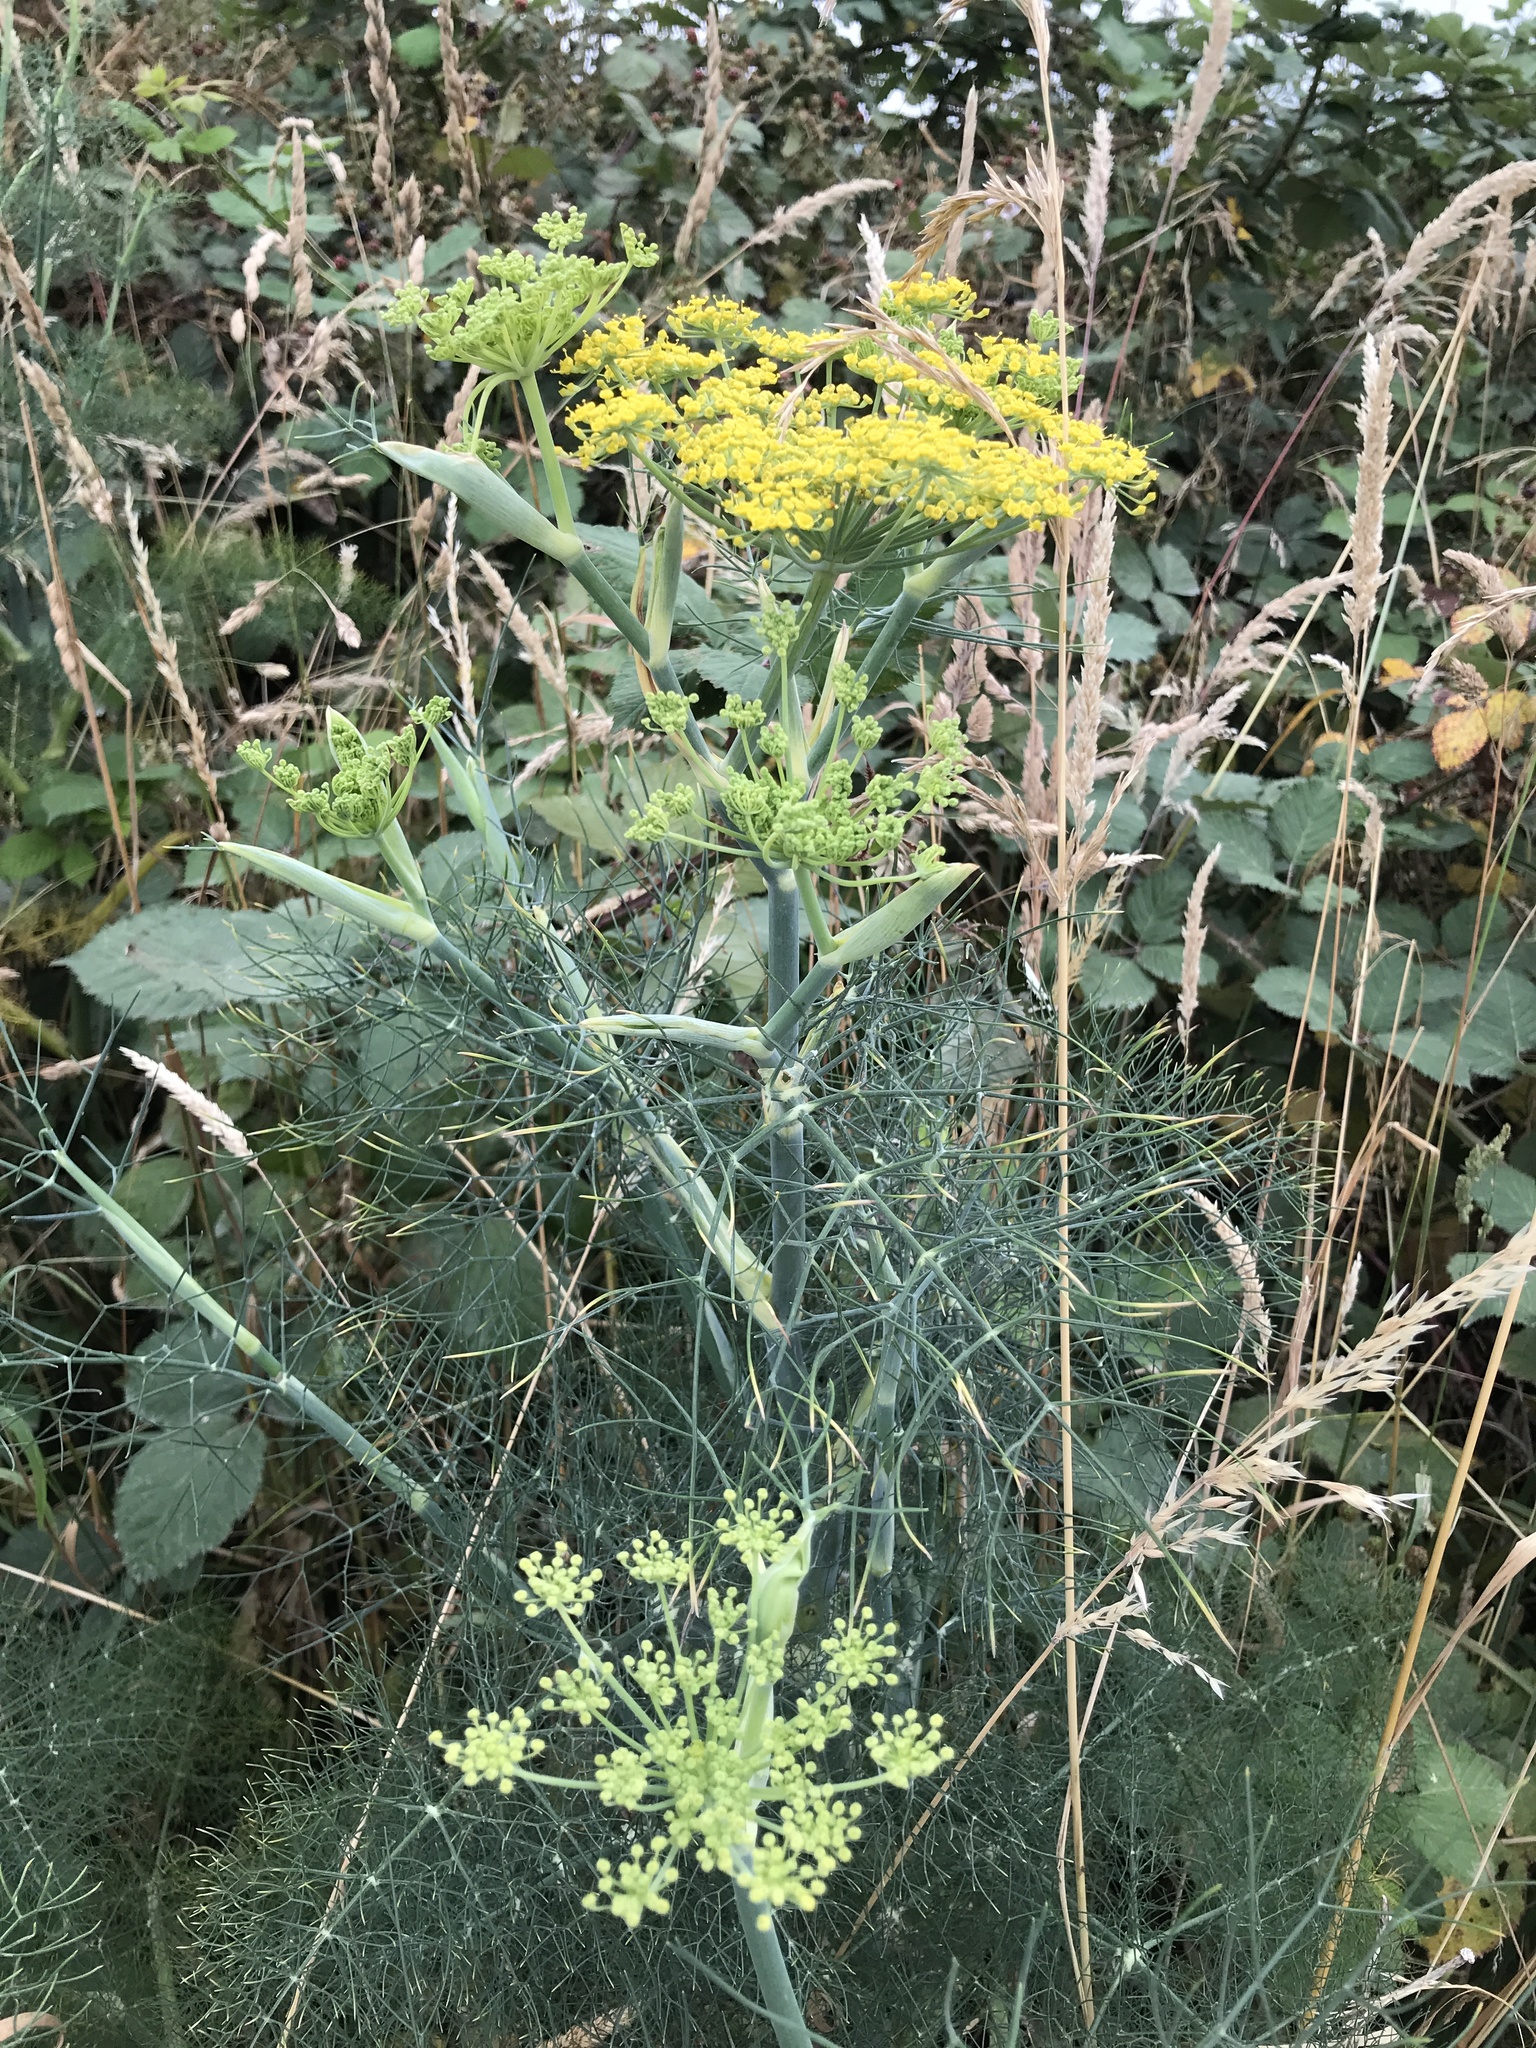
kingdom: Plantae
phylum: Tracheophyta
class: Magnoliopsida
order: Apiales
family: Apiaceae
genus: Foeniculum
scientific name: Foeniculum vulgare
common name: Fennel
